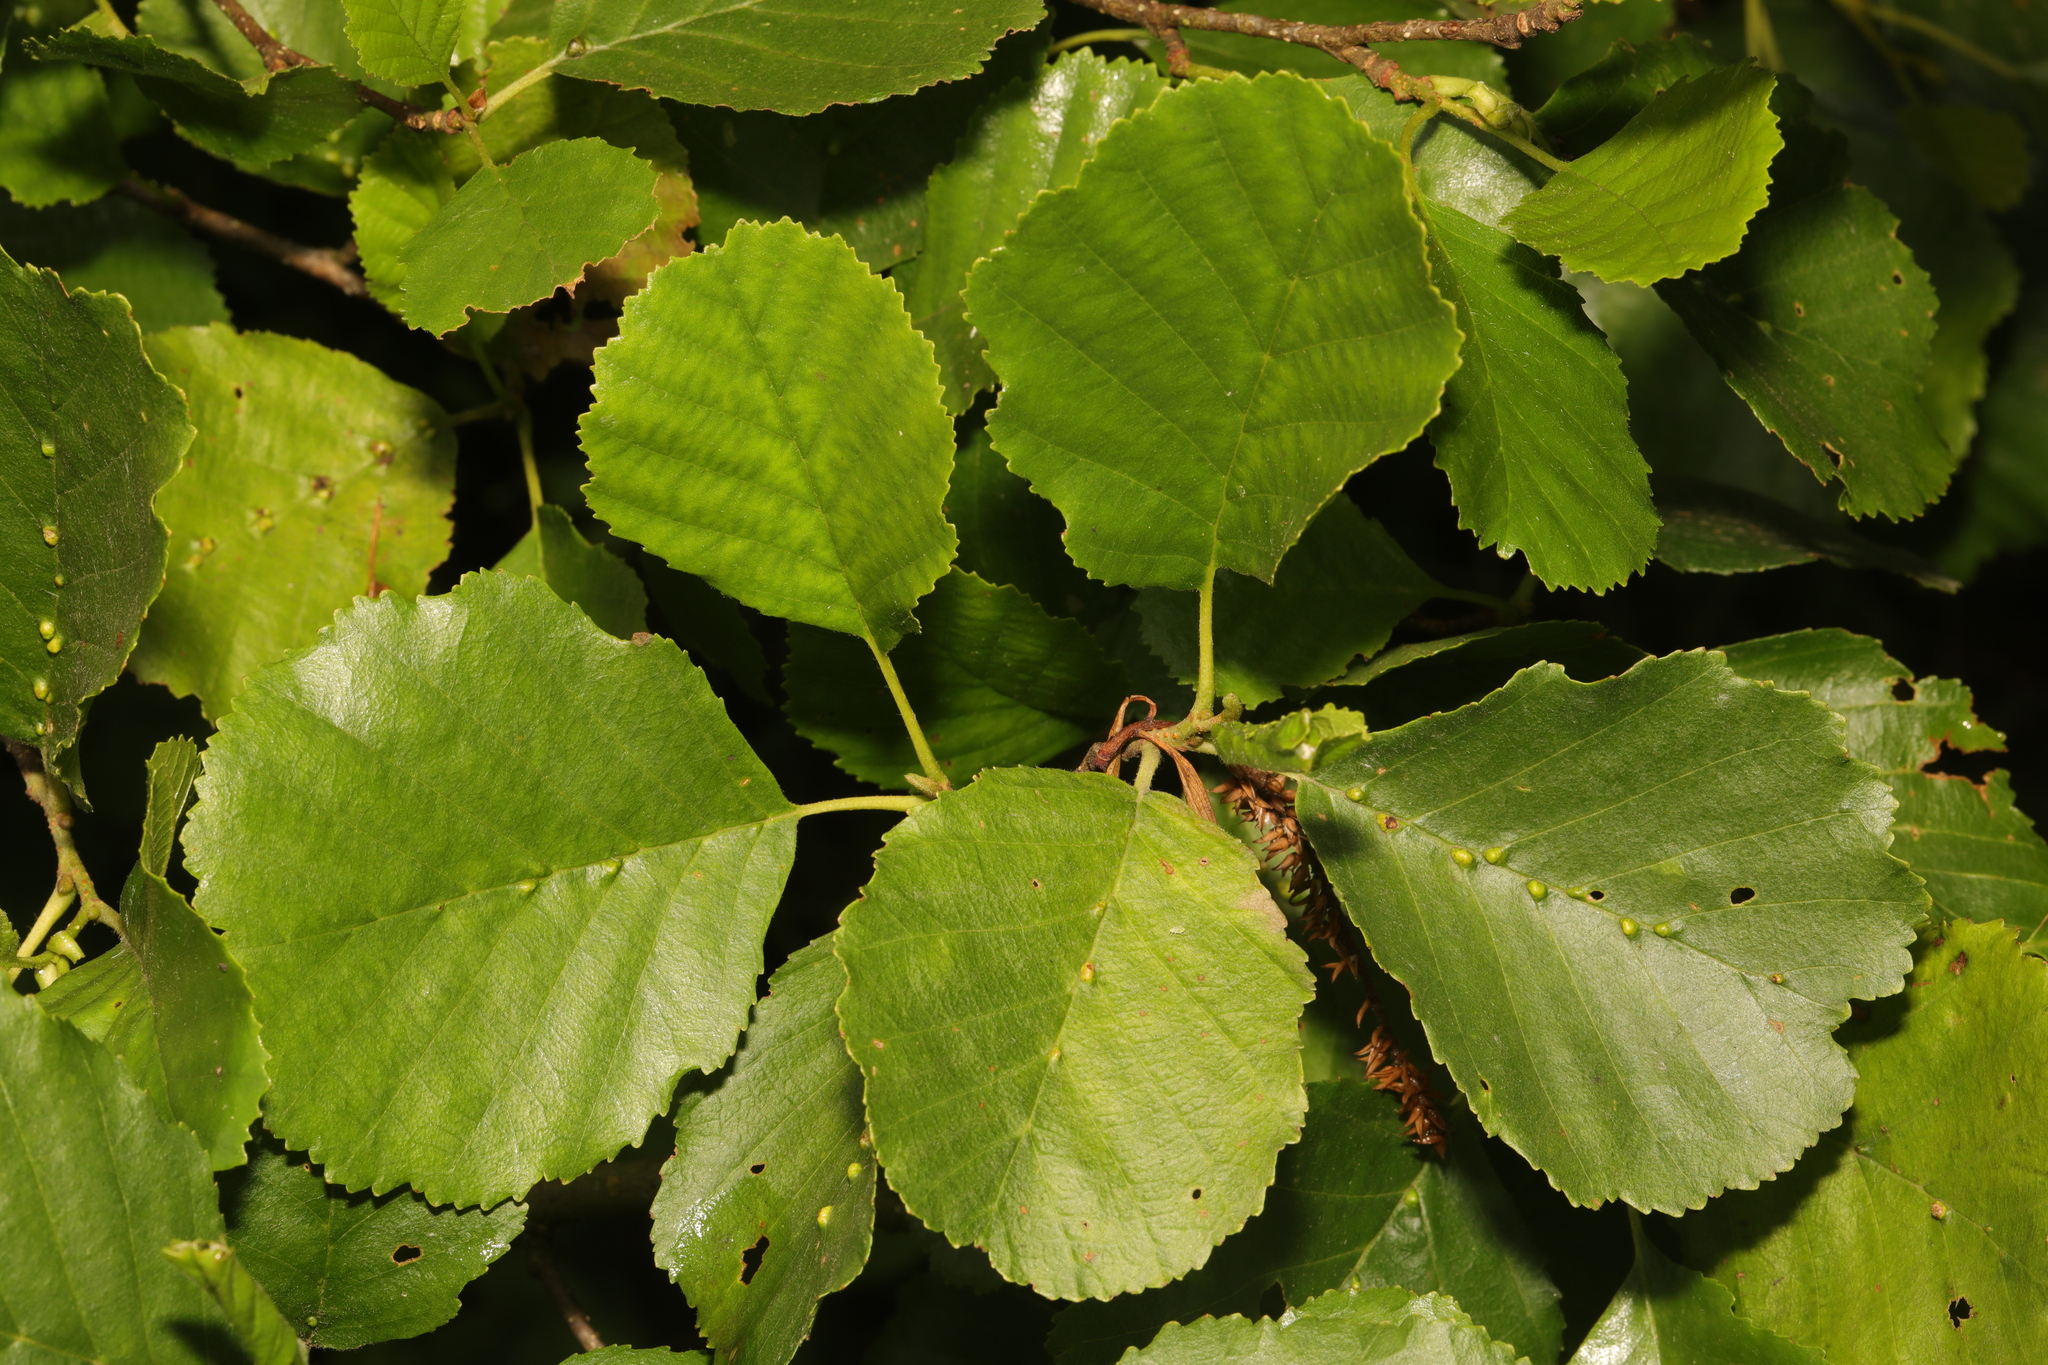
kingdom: Plantae
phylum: Tracheophyta
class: Magnoliopsida
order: Fagales
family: Betulaceae
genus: Alnus
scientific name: Alnus glutinosa
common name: Black alder
